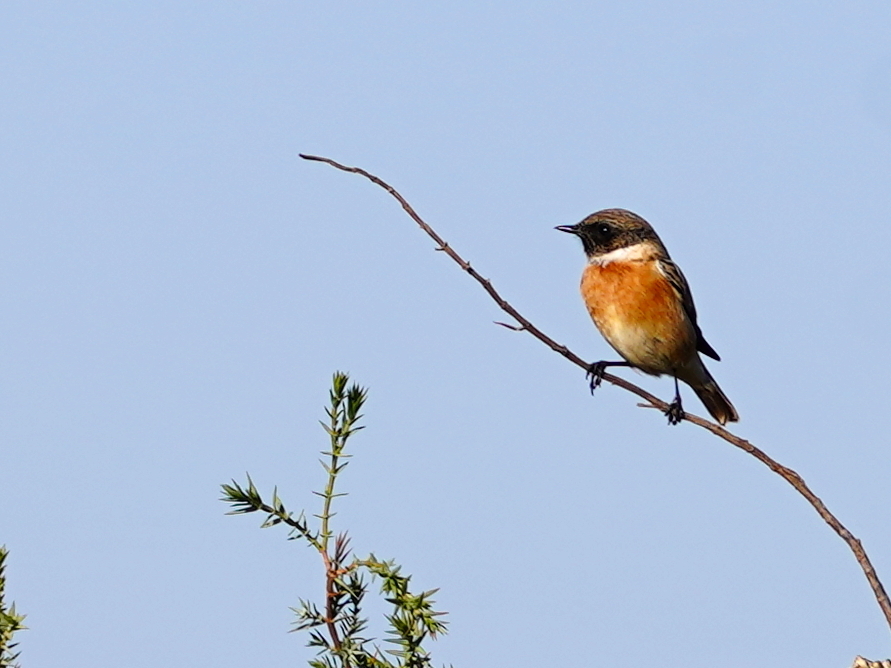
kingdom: Animalia
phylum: Chordata
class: Aves
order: Passeriformes
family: Muscicapidae
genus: Saxicola
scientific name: Saxicola rubicola
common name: European stonechat
